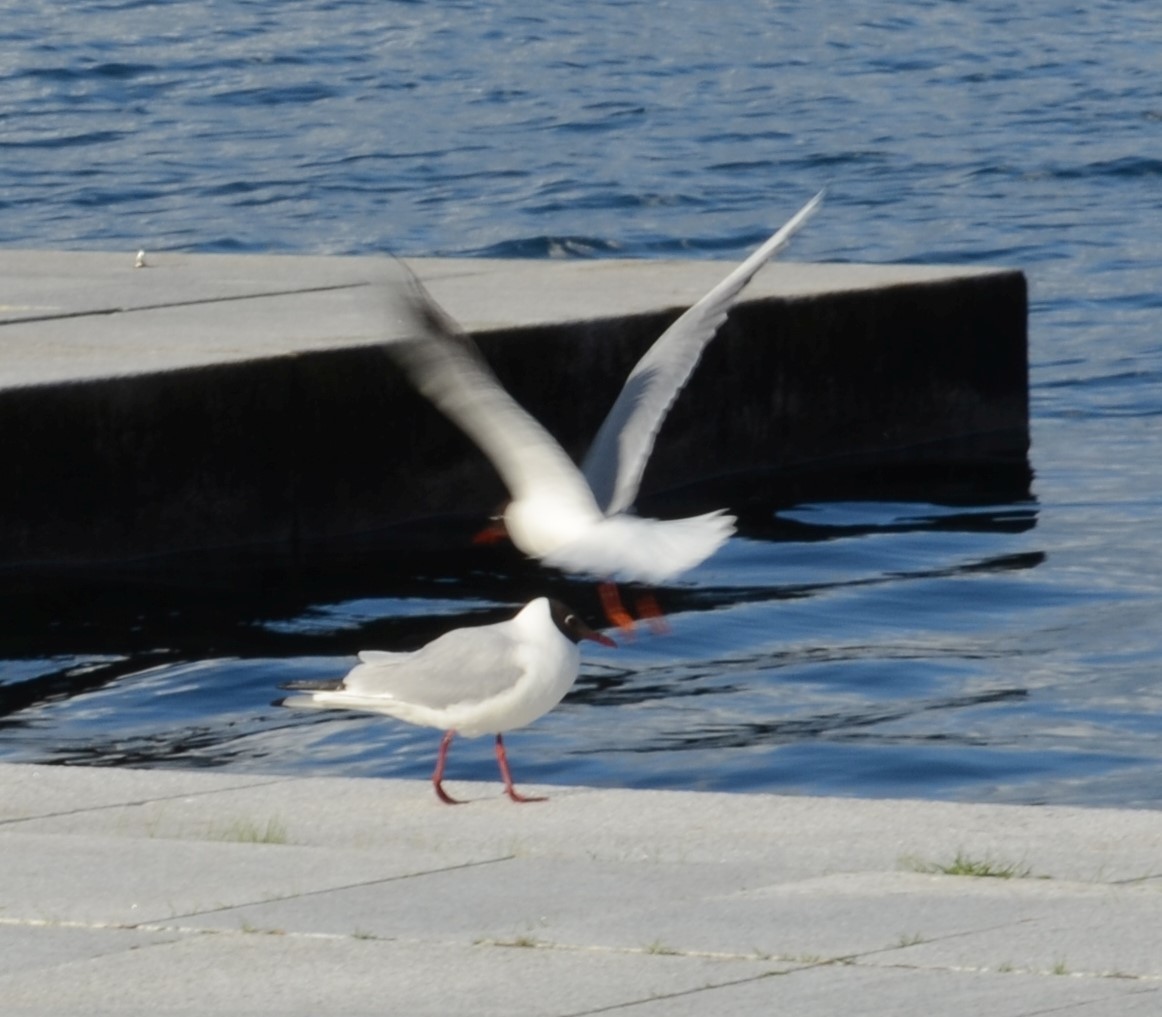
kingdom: Animalia
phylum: Chordata
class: Aves
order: Charadriiformes
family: Laridae
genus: Chroicocephalus
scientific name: Chroicocephalus ridibundus
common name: Black-headed gull
